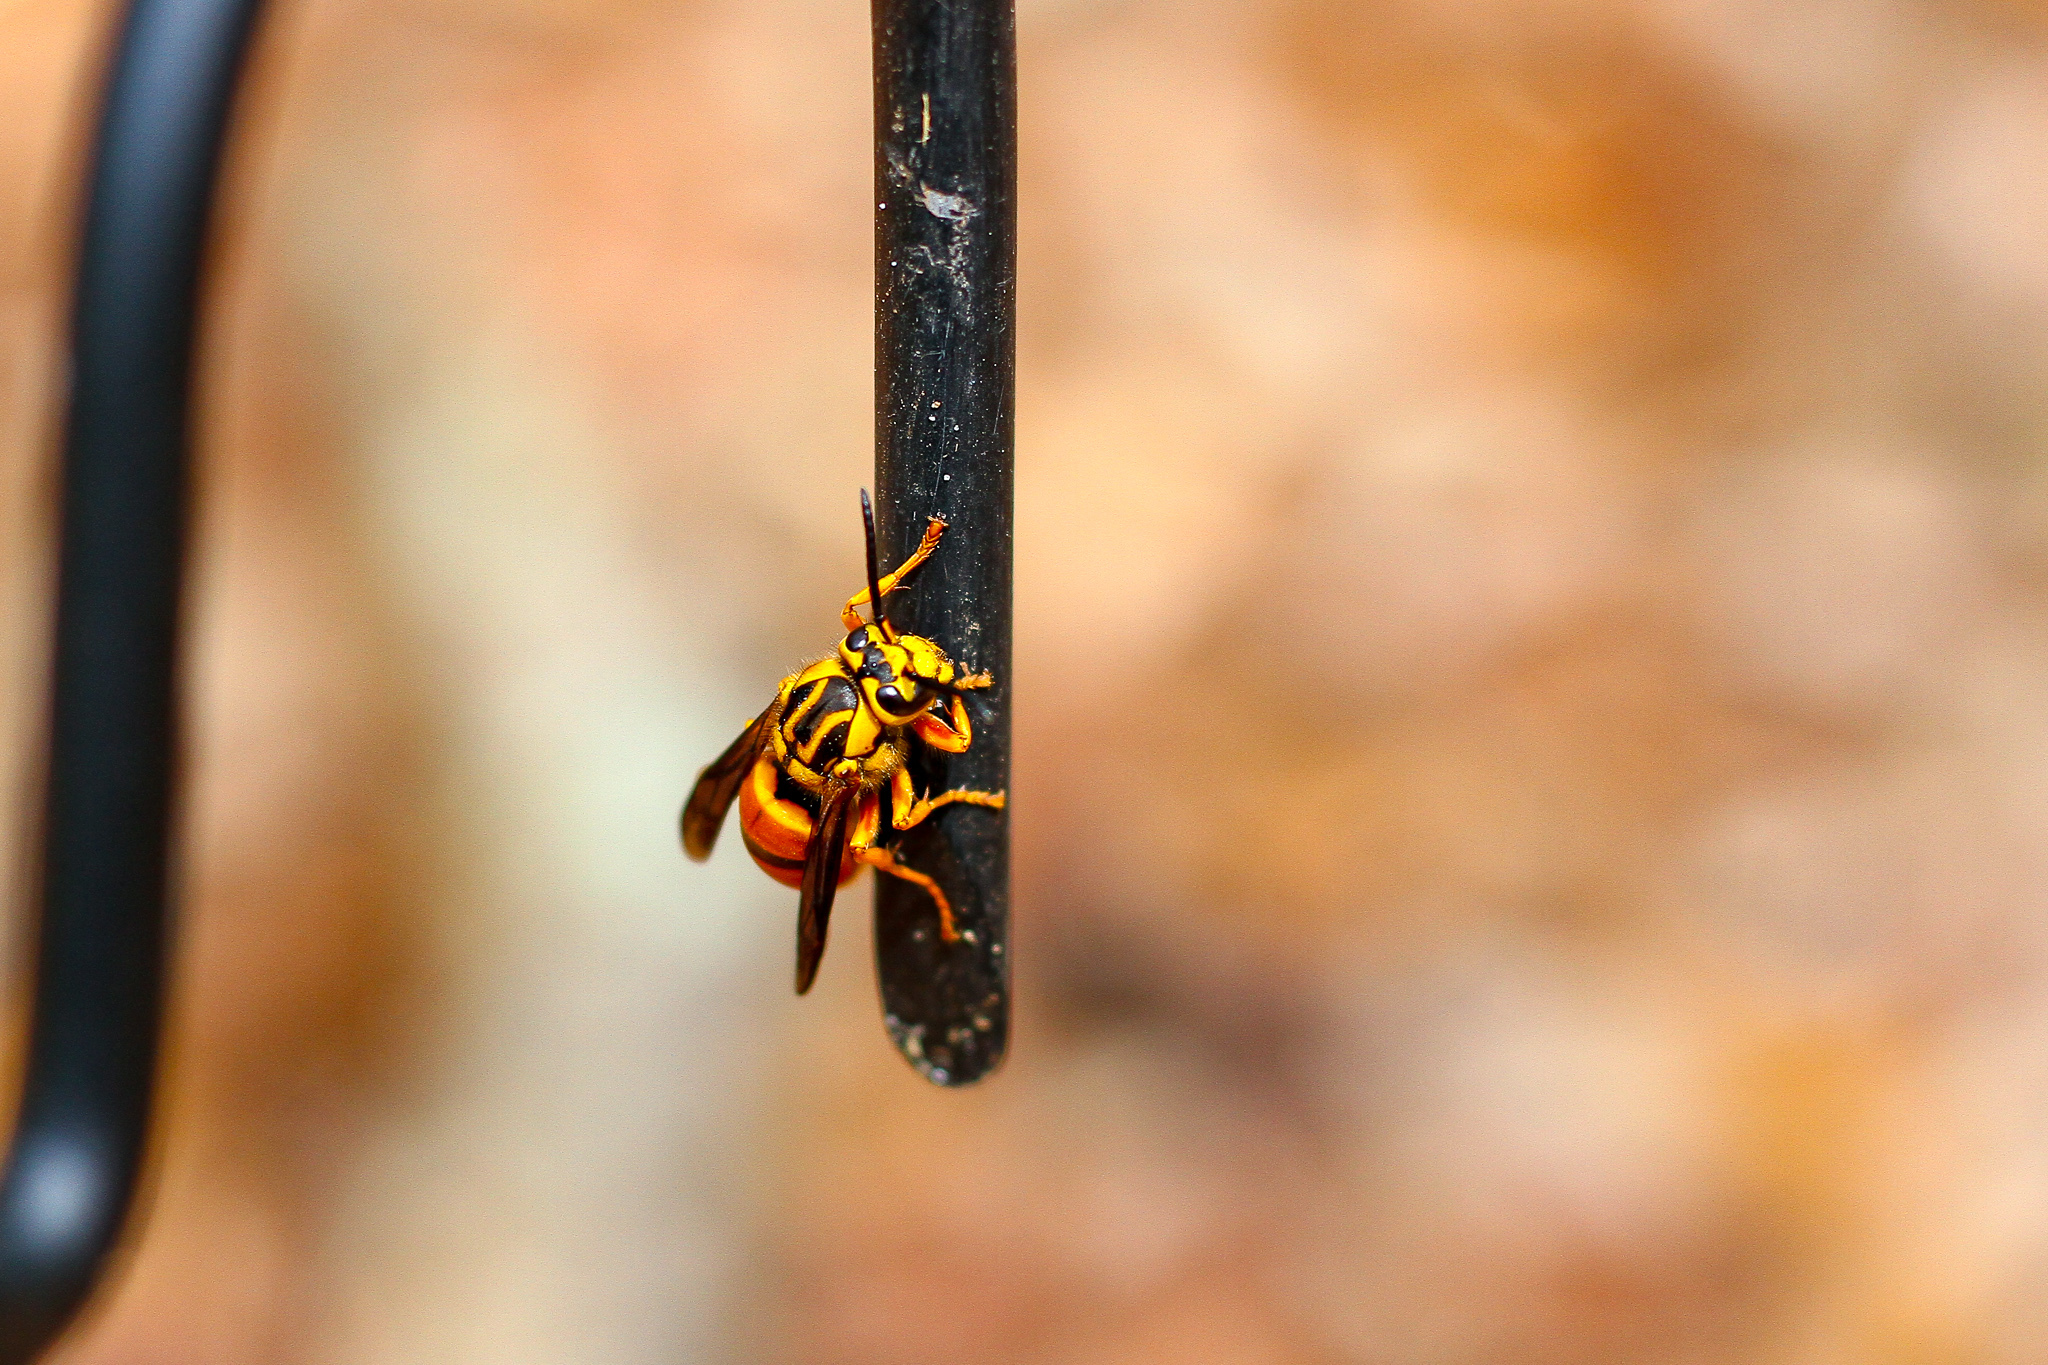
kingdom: Animalia
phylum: Arthropoda
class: Insecta
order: Hymenoptera
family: Vespidae
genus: Vespula
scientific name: Vespula squamosa
